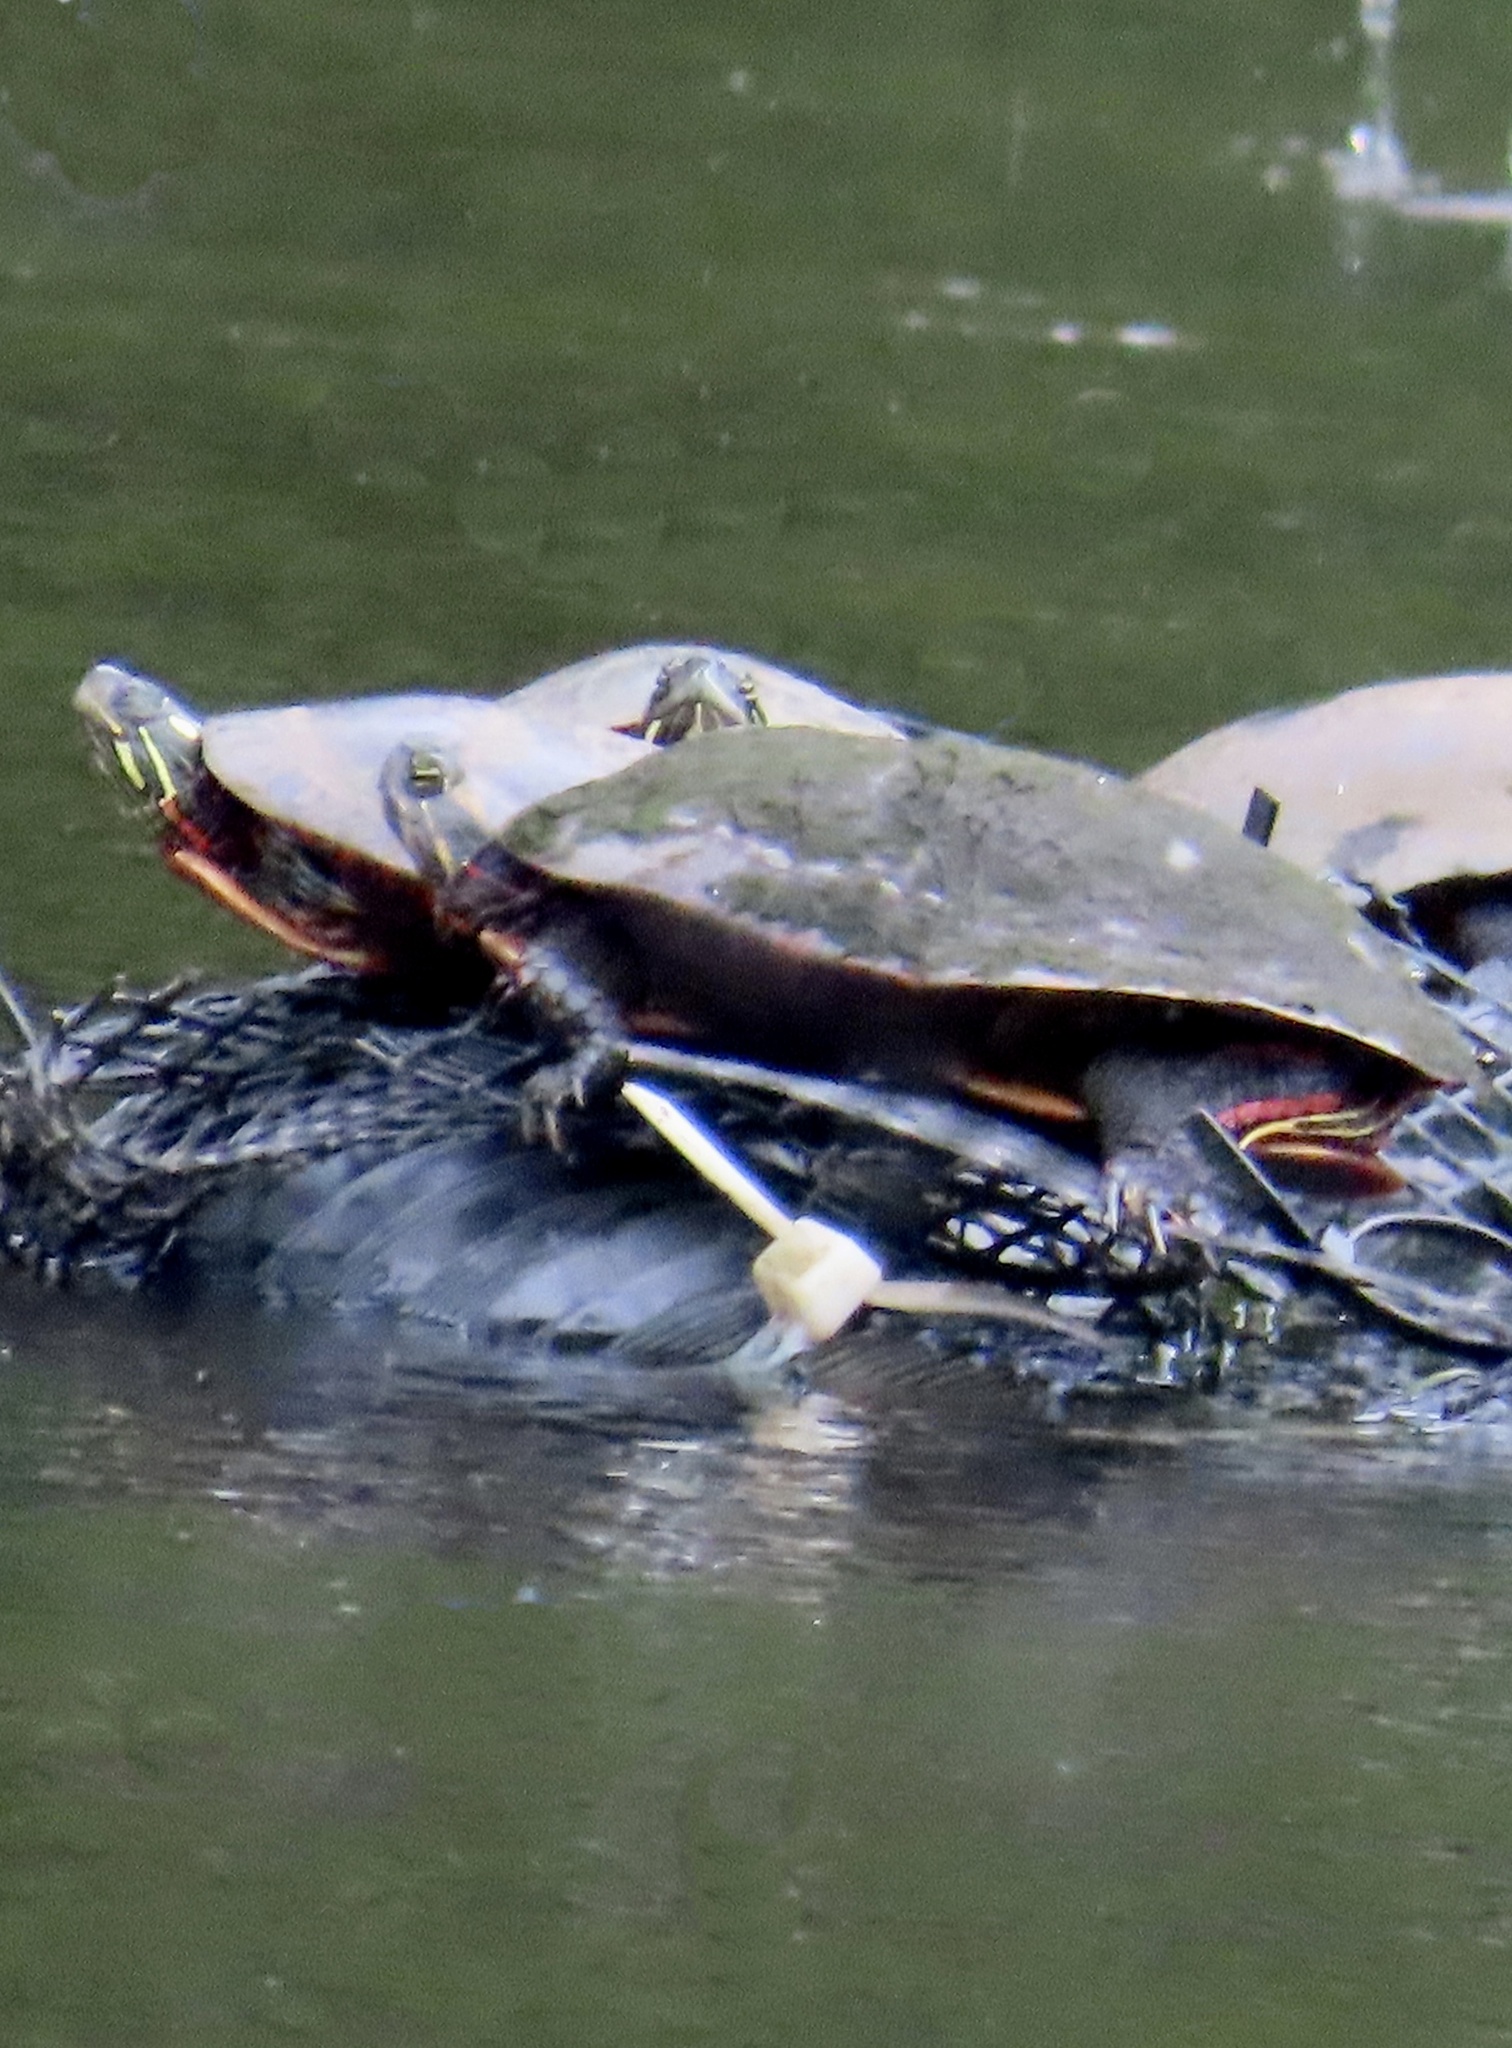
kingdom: Animalia
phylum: Chordata
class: Testudines
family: Emydidae
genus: Chrysemys
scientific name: Chrysemys picta
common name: Painted turtle
